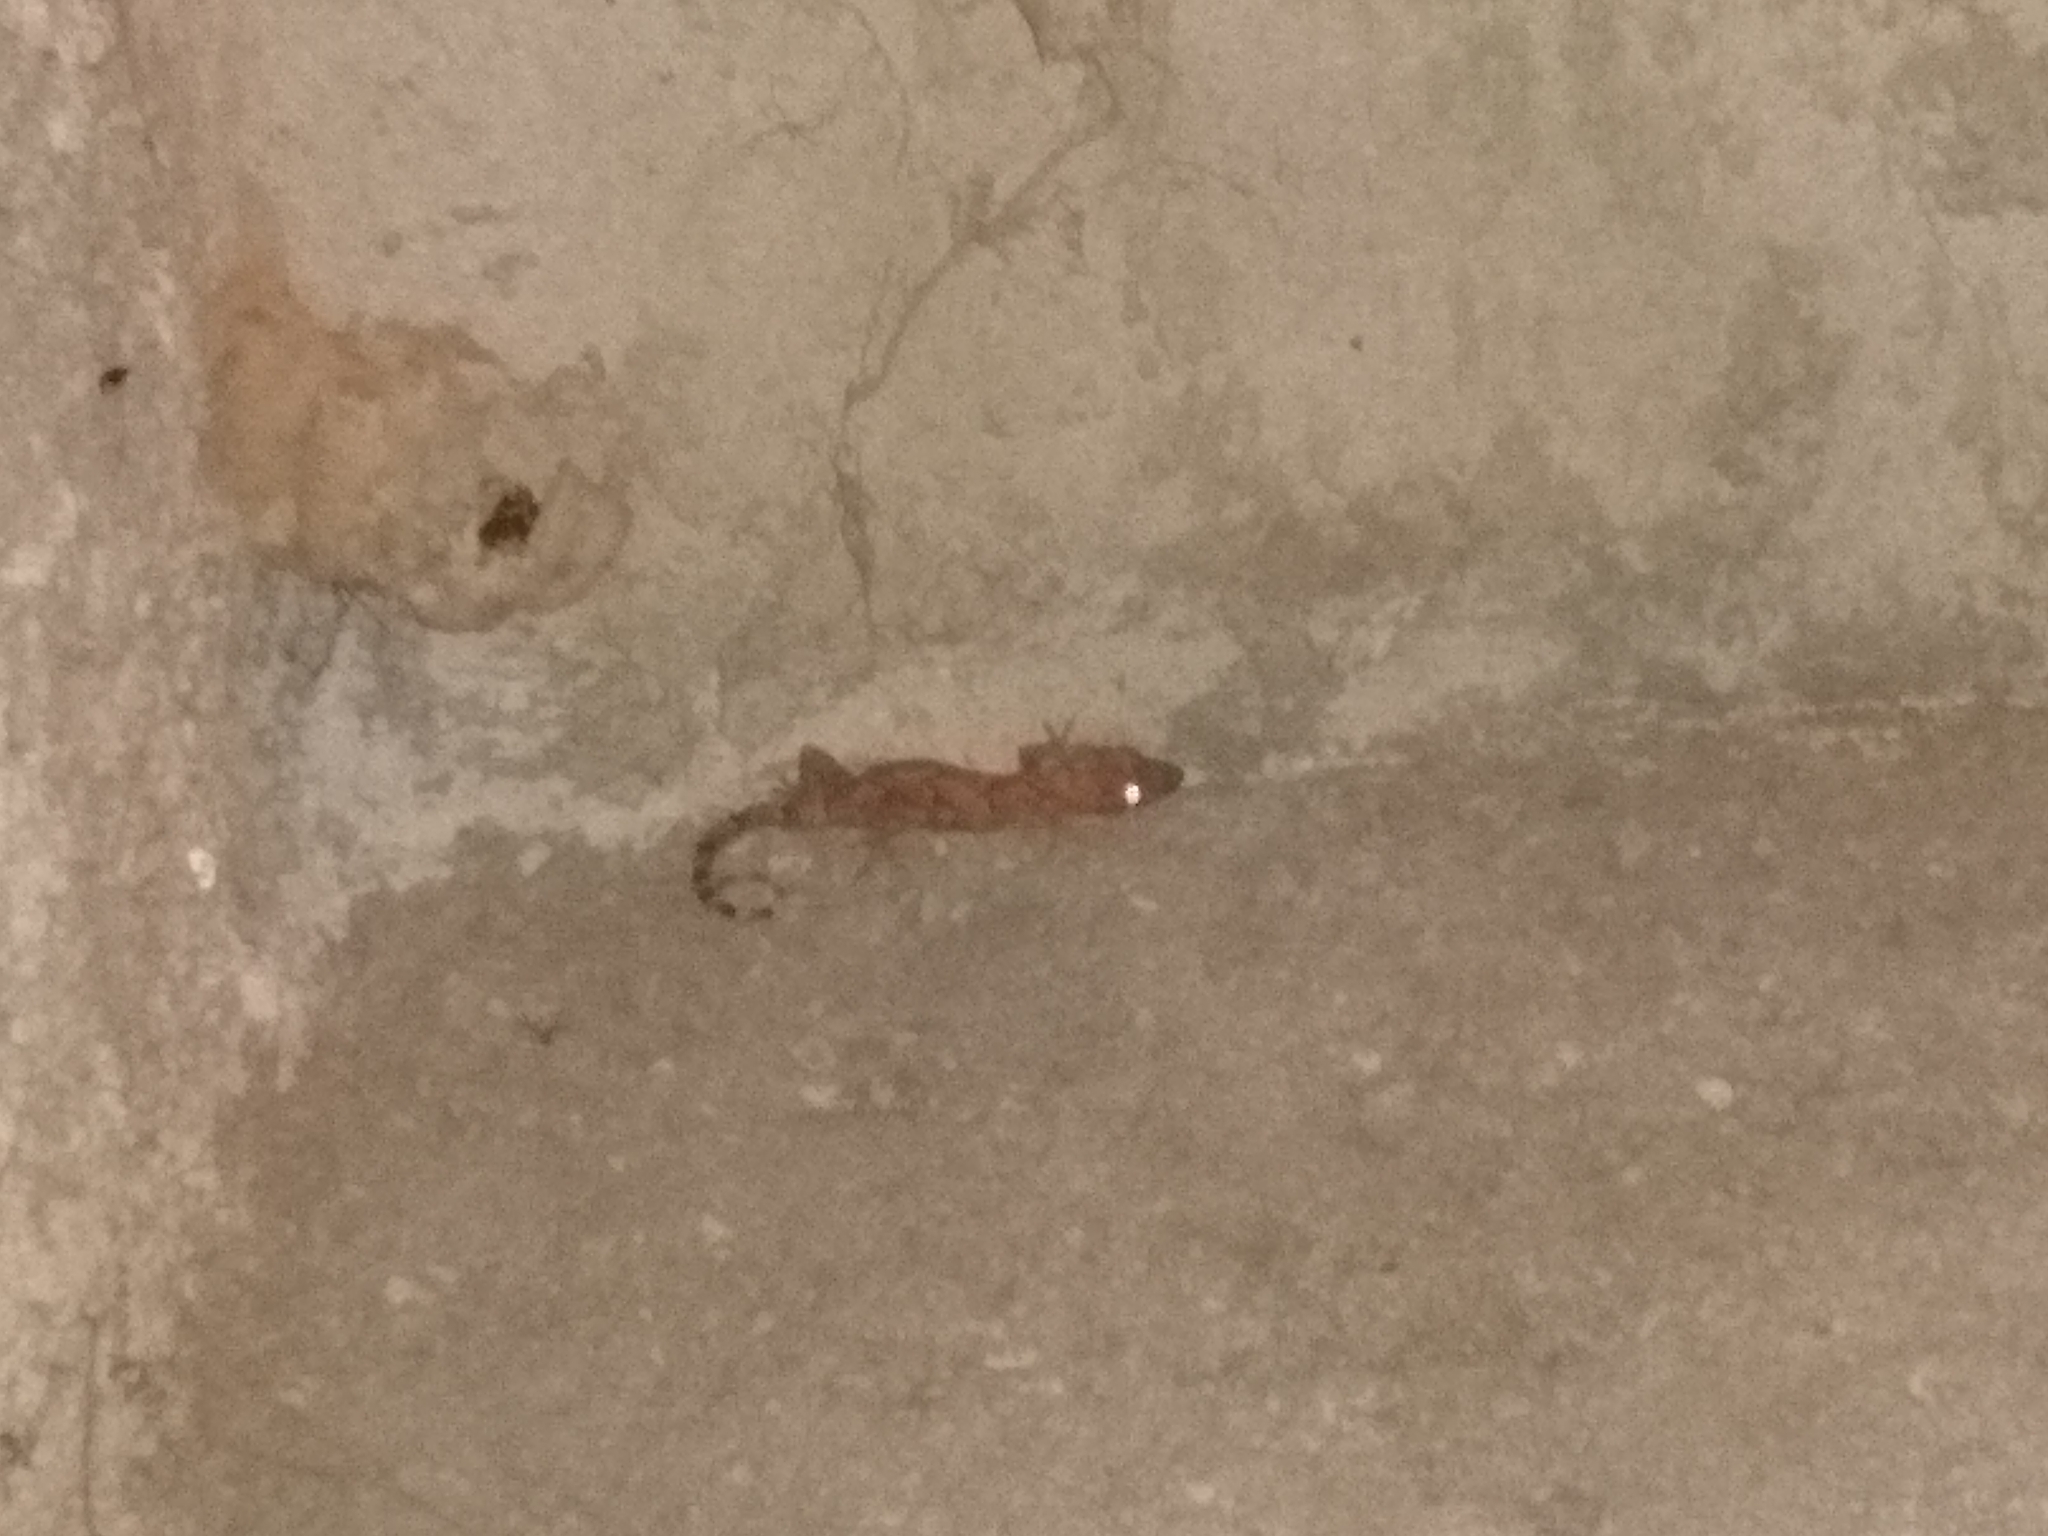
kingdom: Animalia
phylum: Chordata
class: Squamata
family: Gekkonidae
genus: Hemidactylus
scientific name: Hemidactylus mabouia
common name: House gecko
